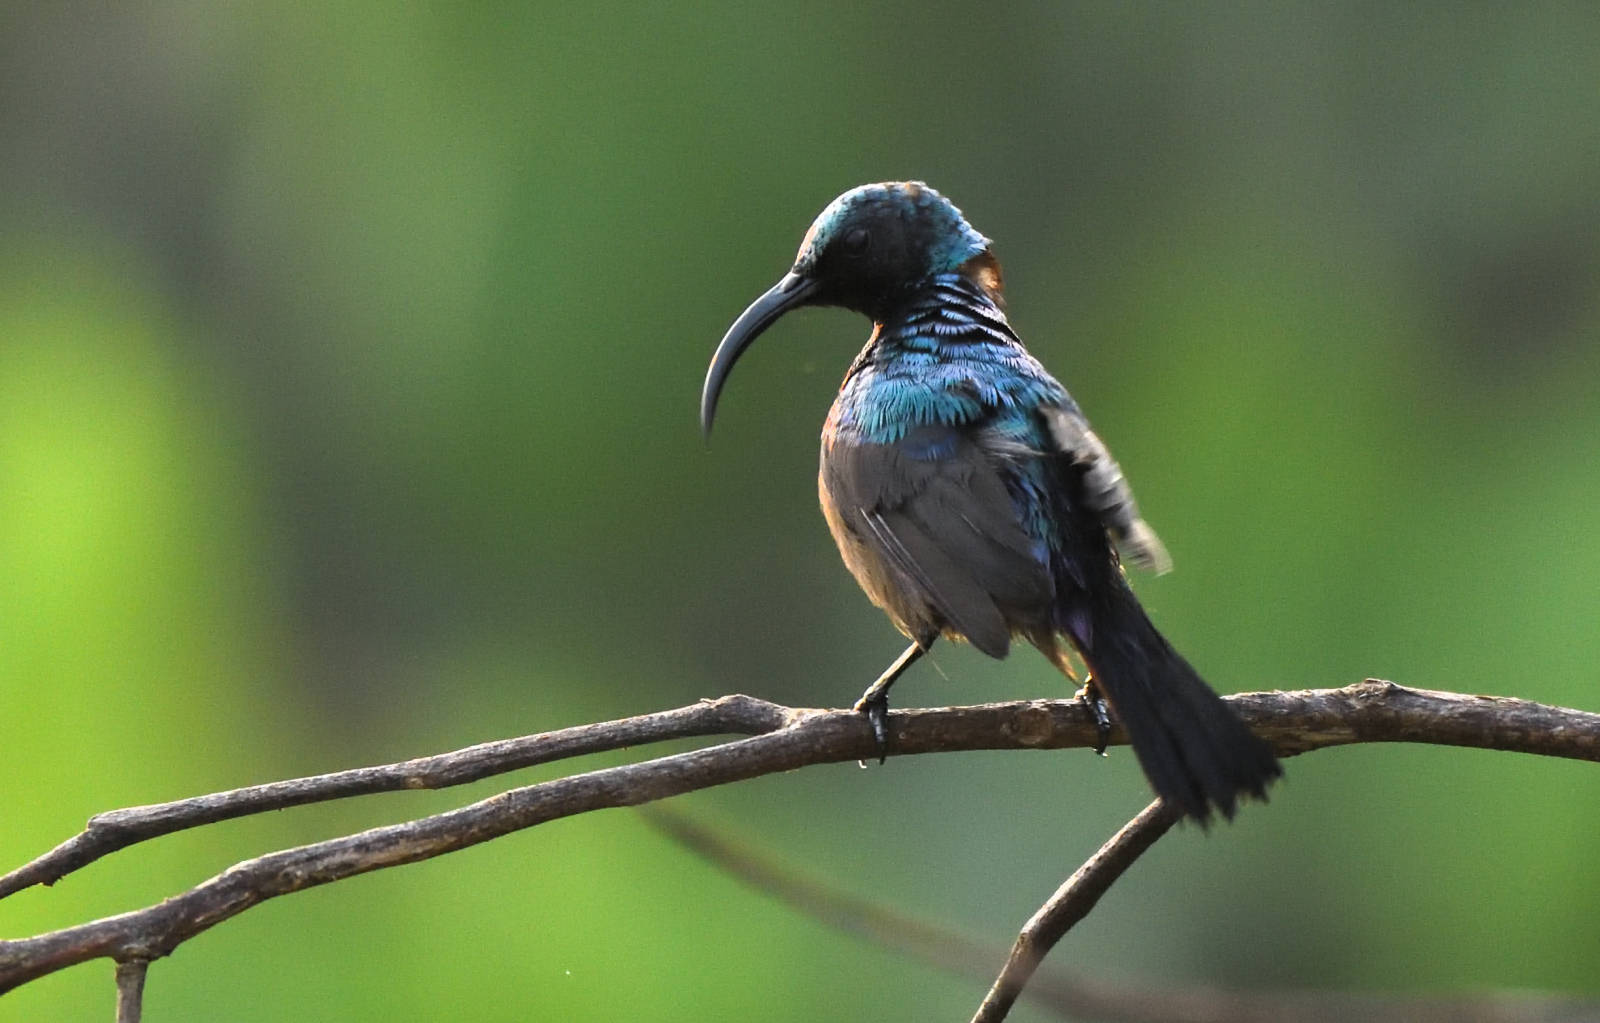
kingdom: Animalia
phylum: Chordata
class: Aves
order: Passeriformes
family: Nectariniidae
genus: Cinnyris
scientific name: Cinnyris lotenius
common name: Loten's sunbird
